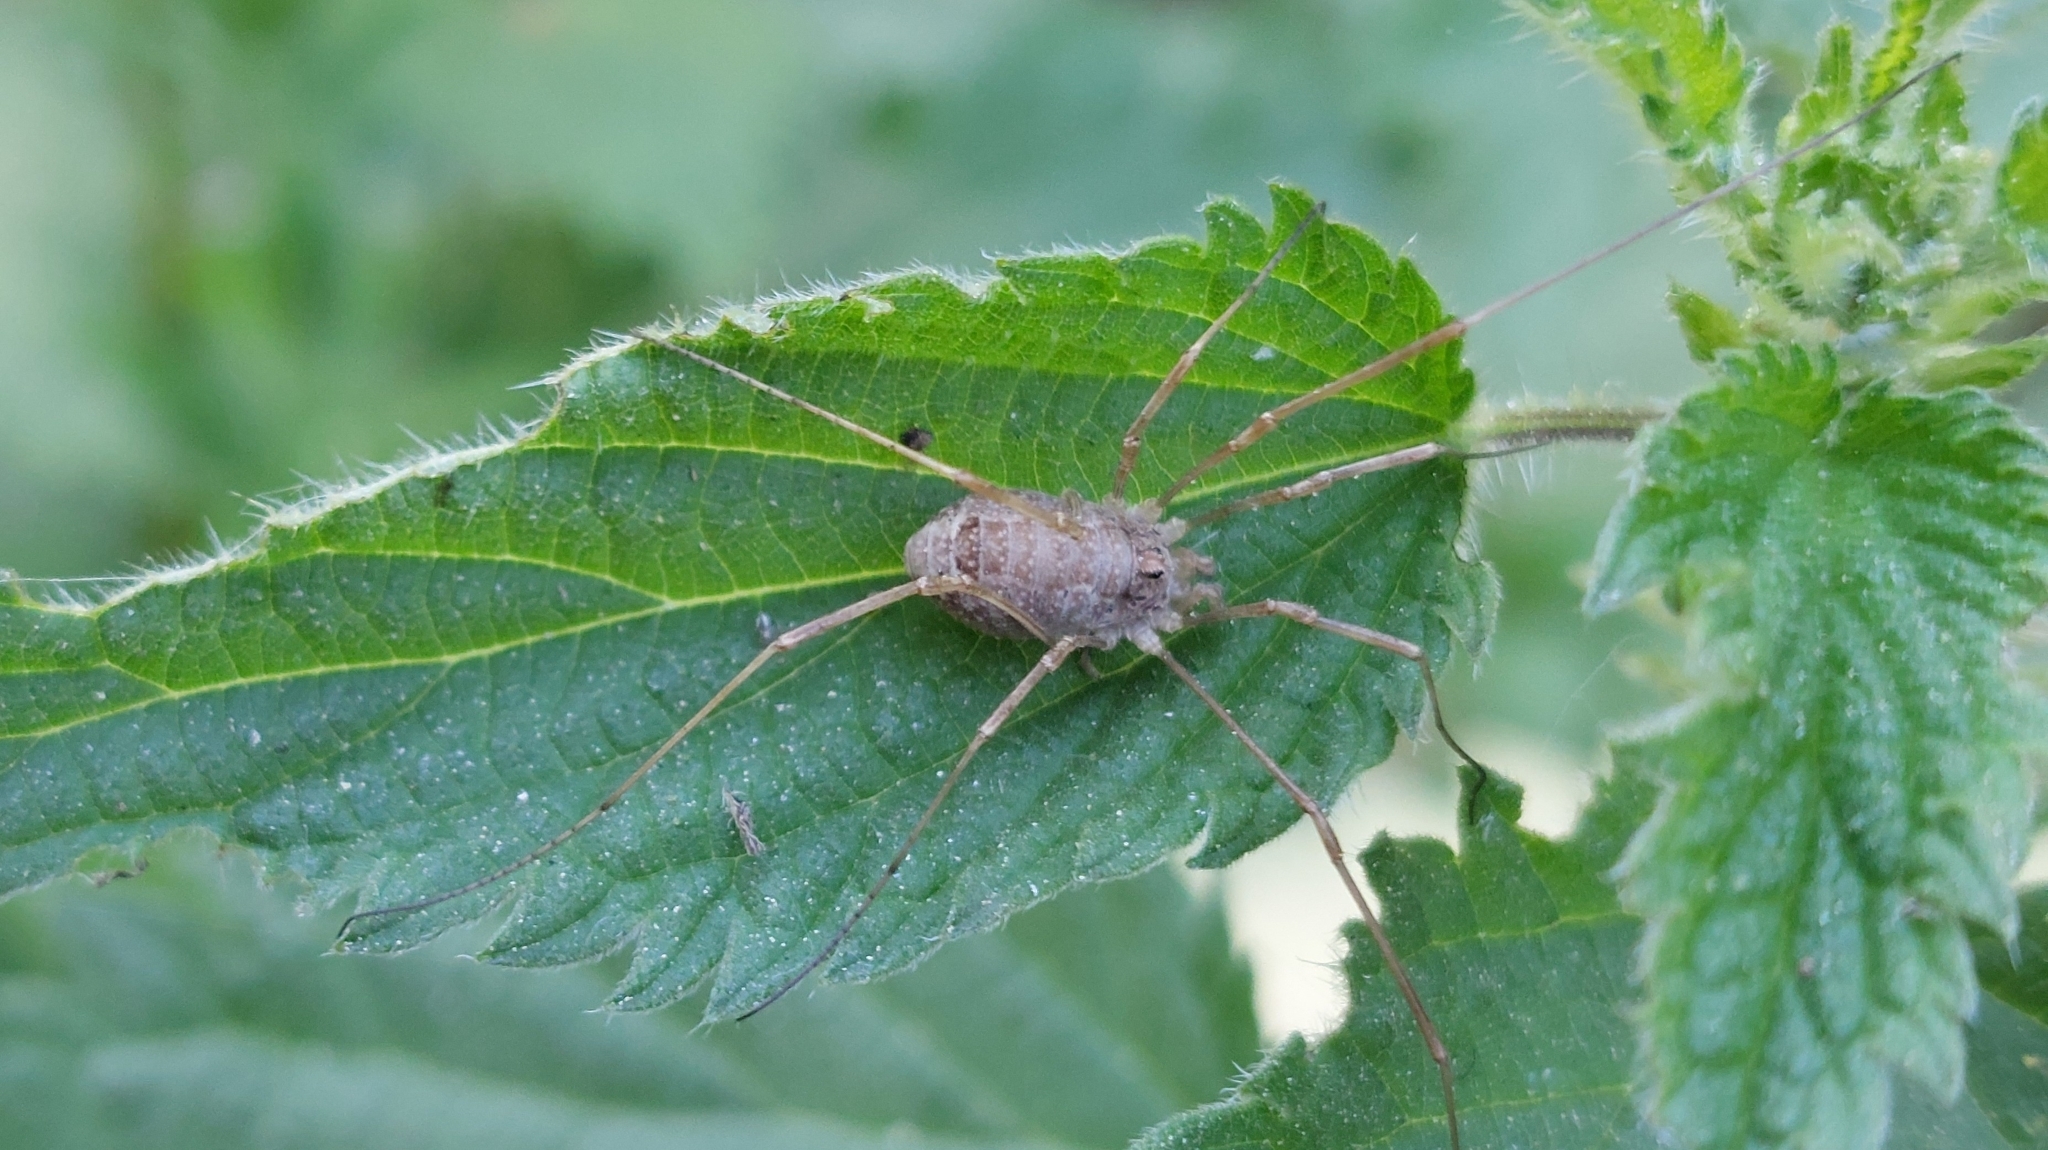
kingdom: Animalia
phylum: Arthropoda
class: Arachnida
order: Opiliones
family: Phalangiidae
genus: Rilaena
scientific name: Rilaena triangularis
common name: Spring harvestman
